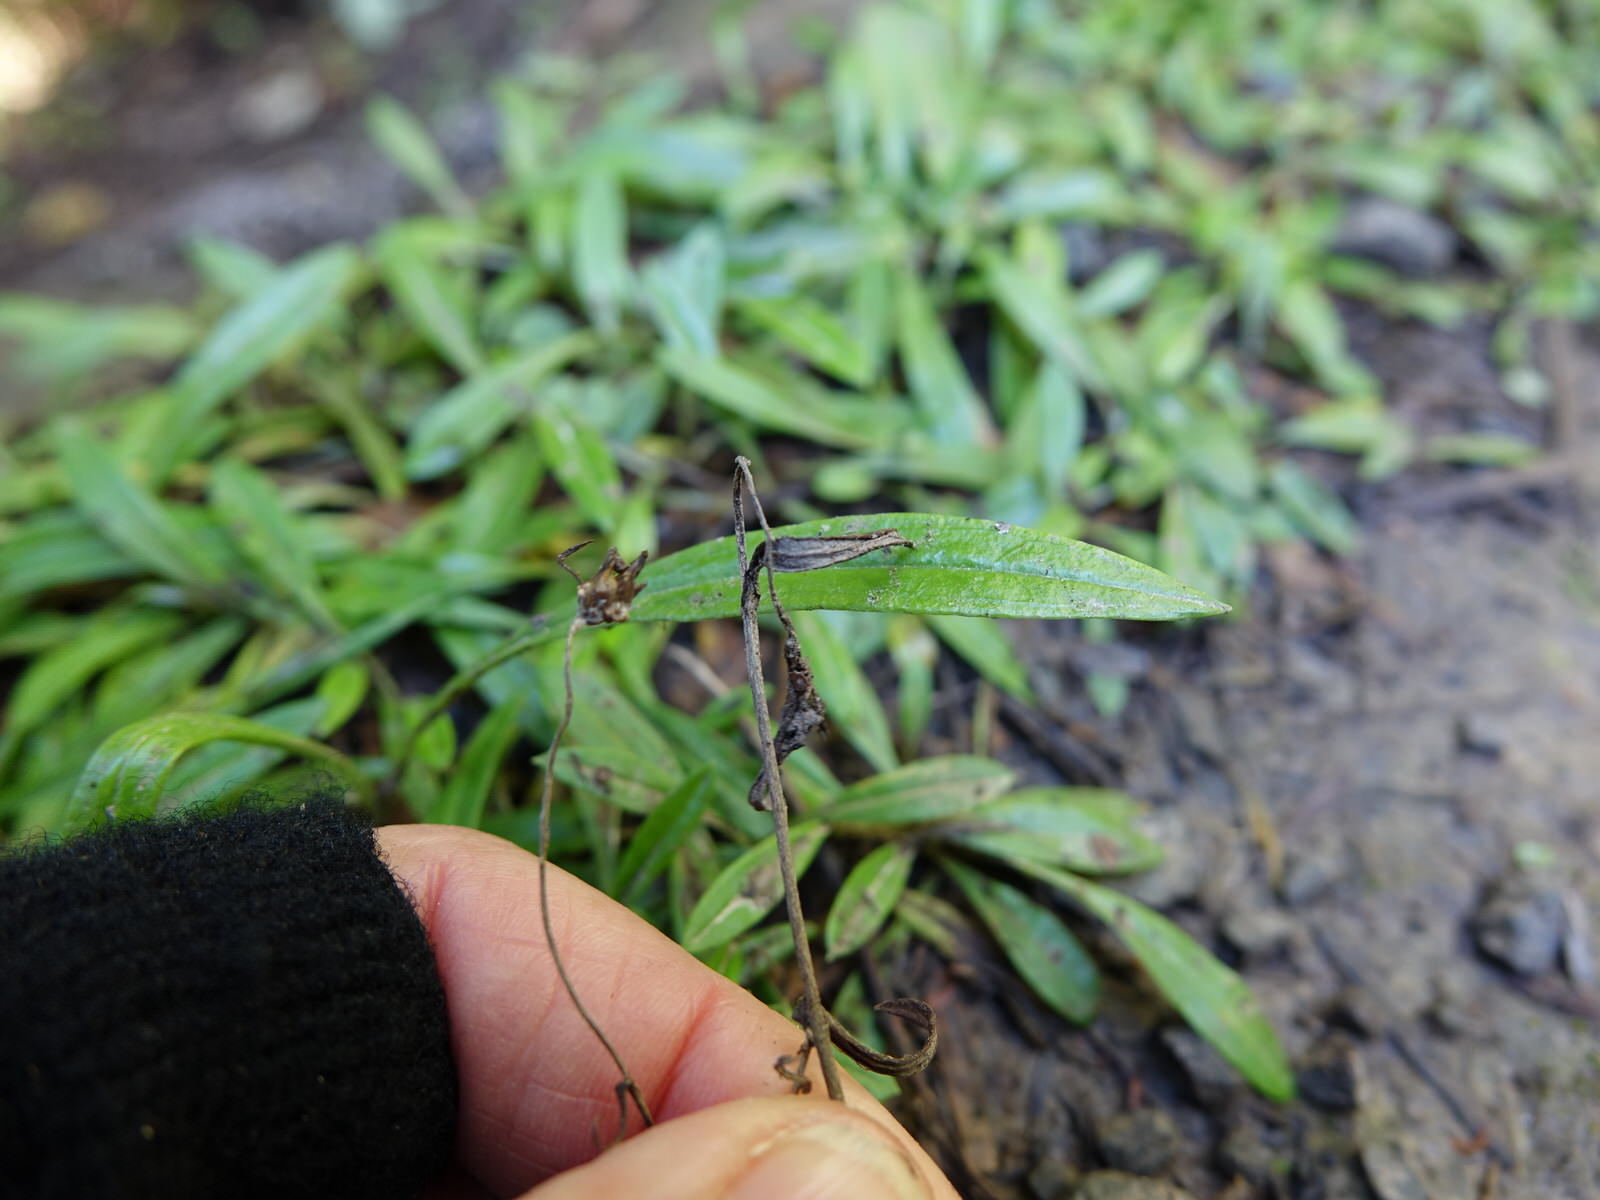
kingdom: Plantae
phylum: Tracheophyta
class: Magnoliopsida
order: Asterales
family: Asteraceae
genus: Euchiton
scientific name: Euchiton japonicus
